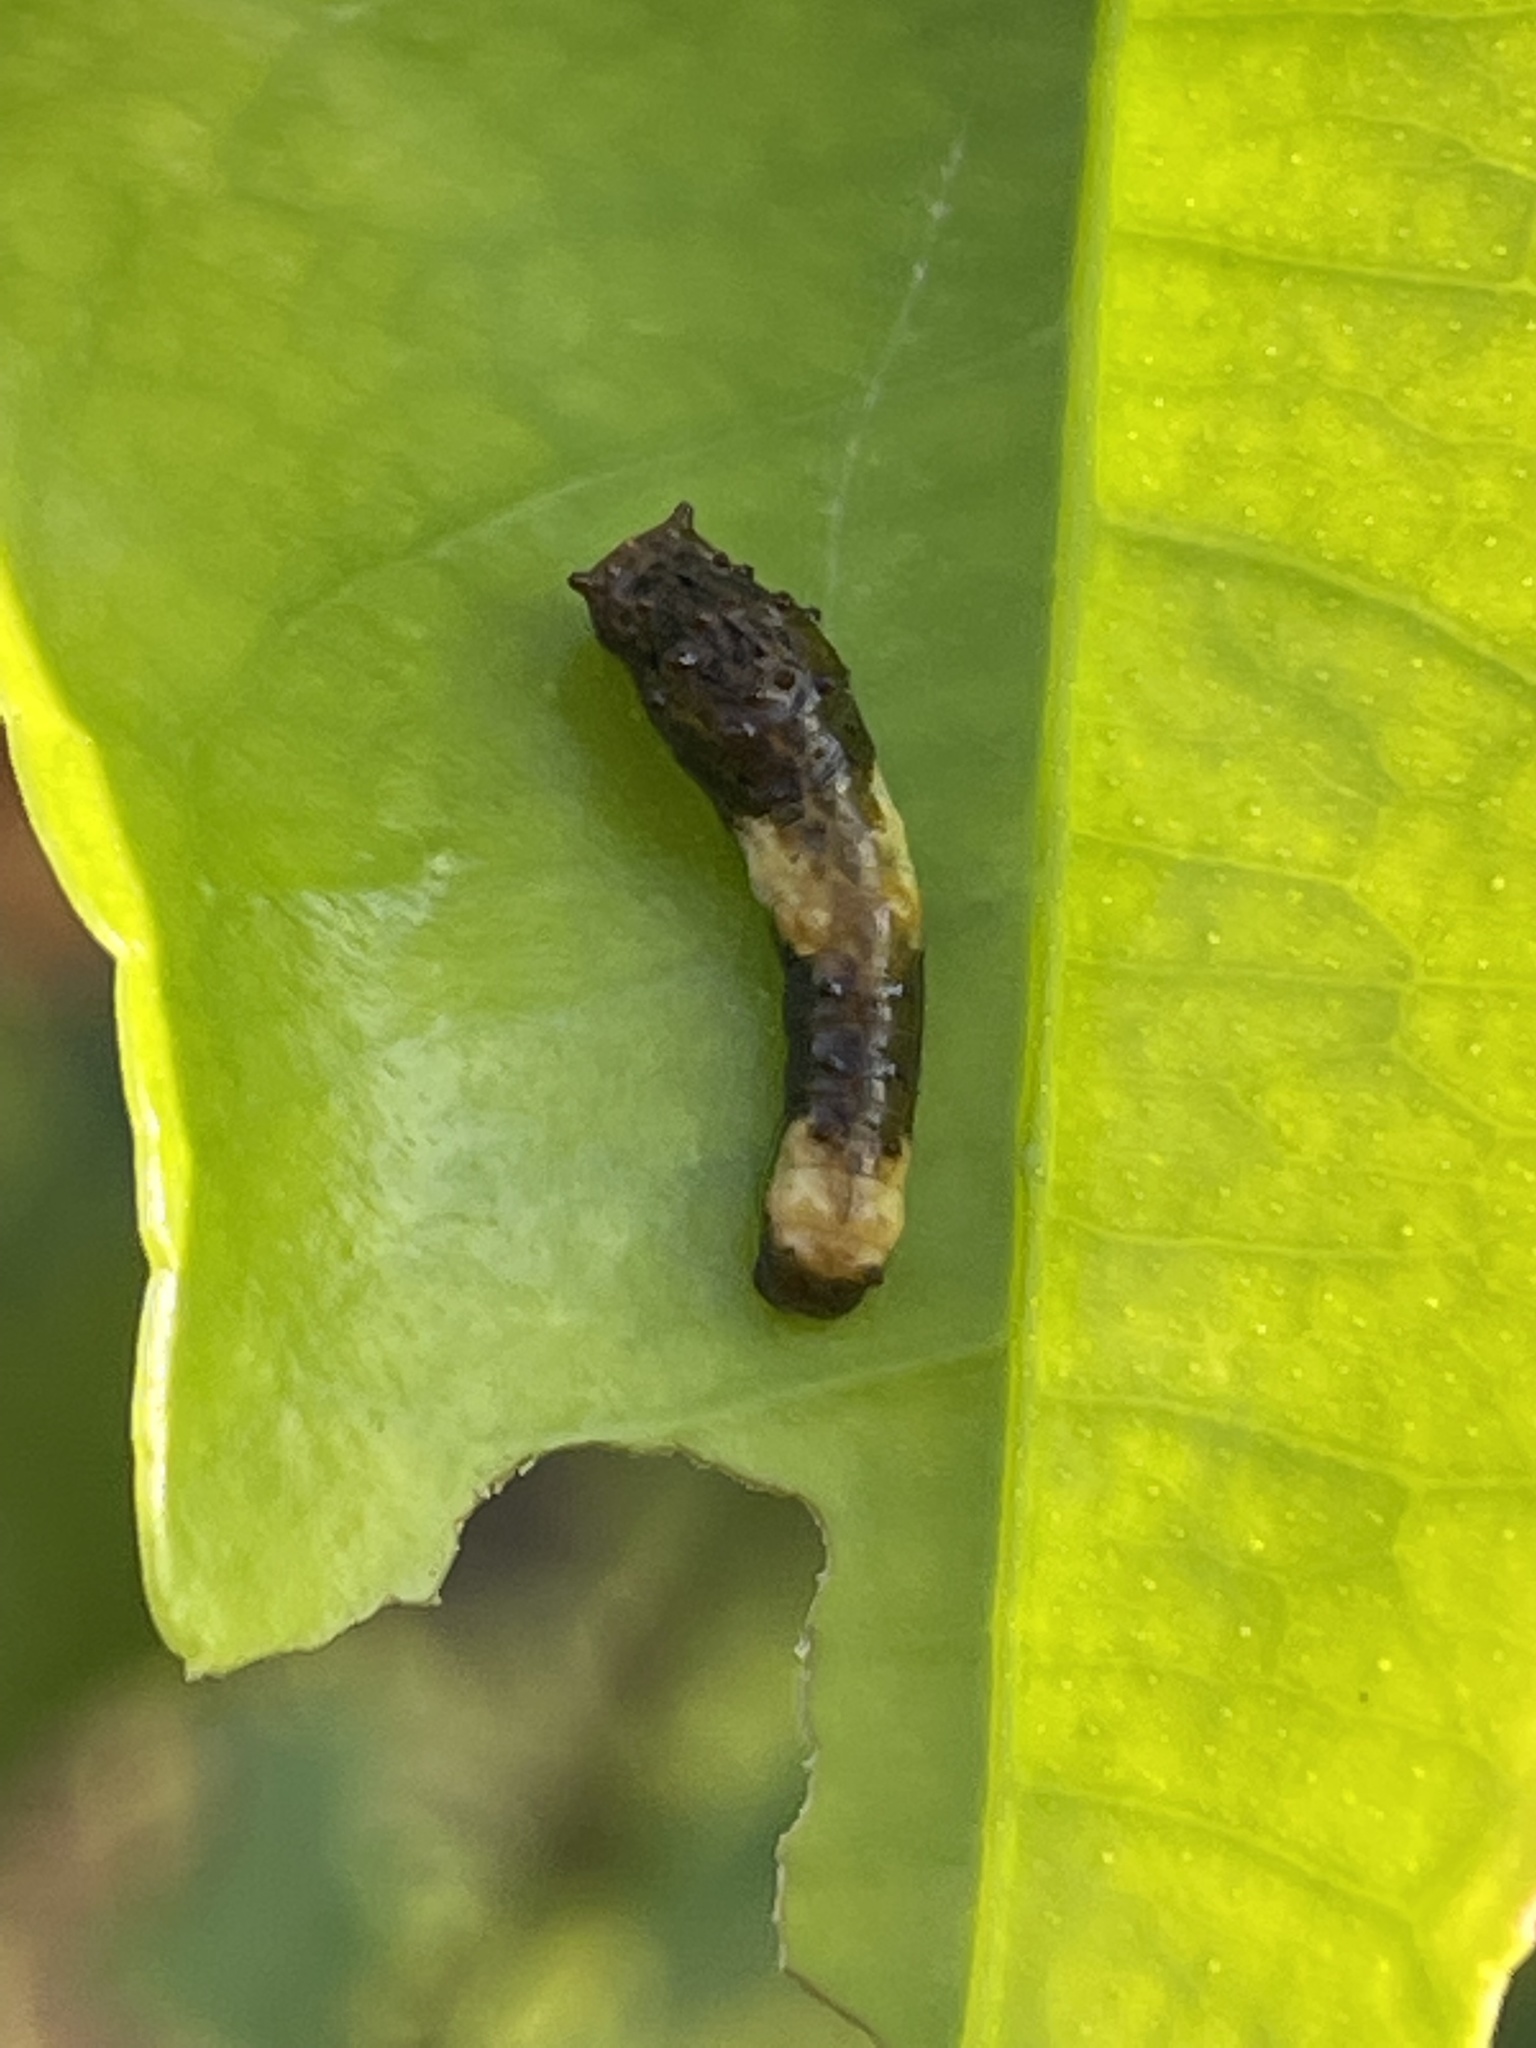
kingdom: Animalia
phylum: Arthropoda
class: Insecta
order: Lepidoptera
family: Papilionidae
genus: Papilio
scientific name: Papilio cresphontes
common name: Giant swallowtail
